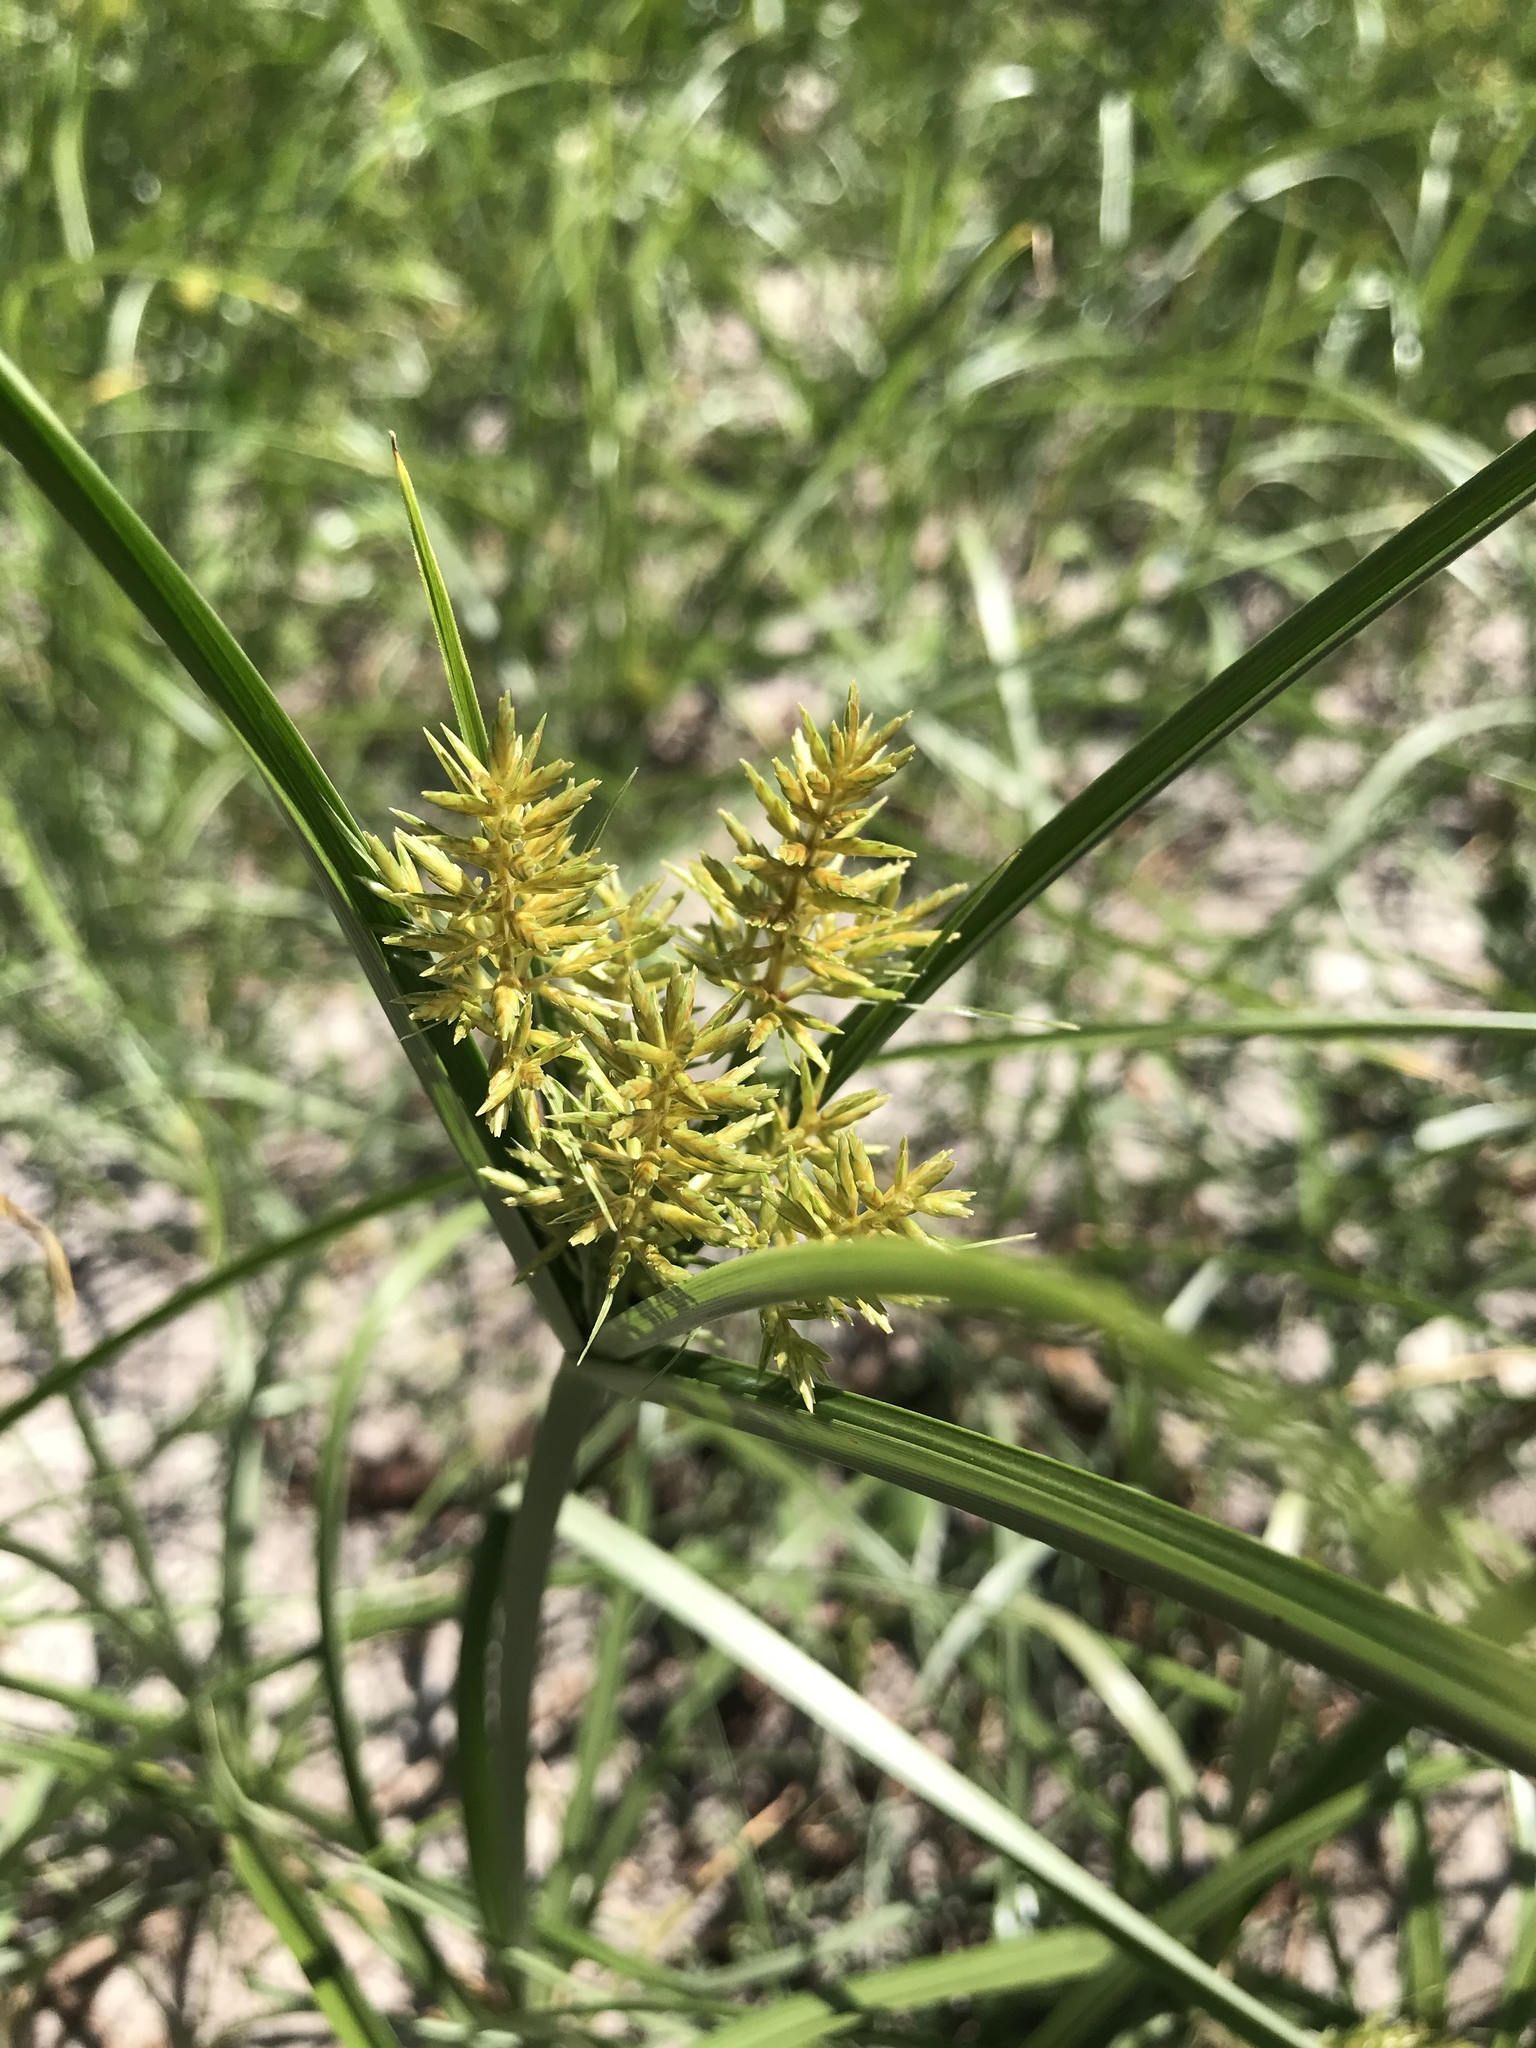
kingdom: Plantae
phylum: Tracheophyta
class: Liliopsida
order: Poales
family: Cyperaceae
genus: Cyperus
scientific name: Cyperus esculentus
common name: Yellow nutsedge
